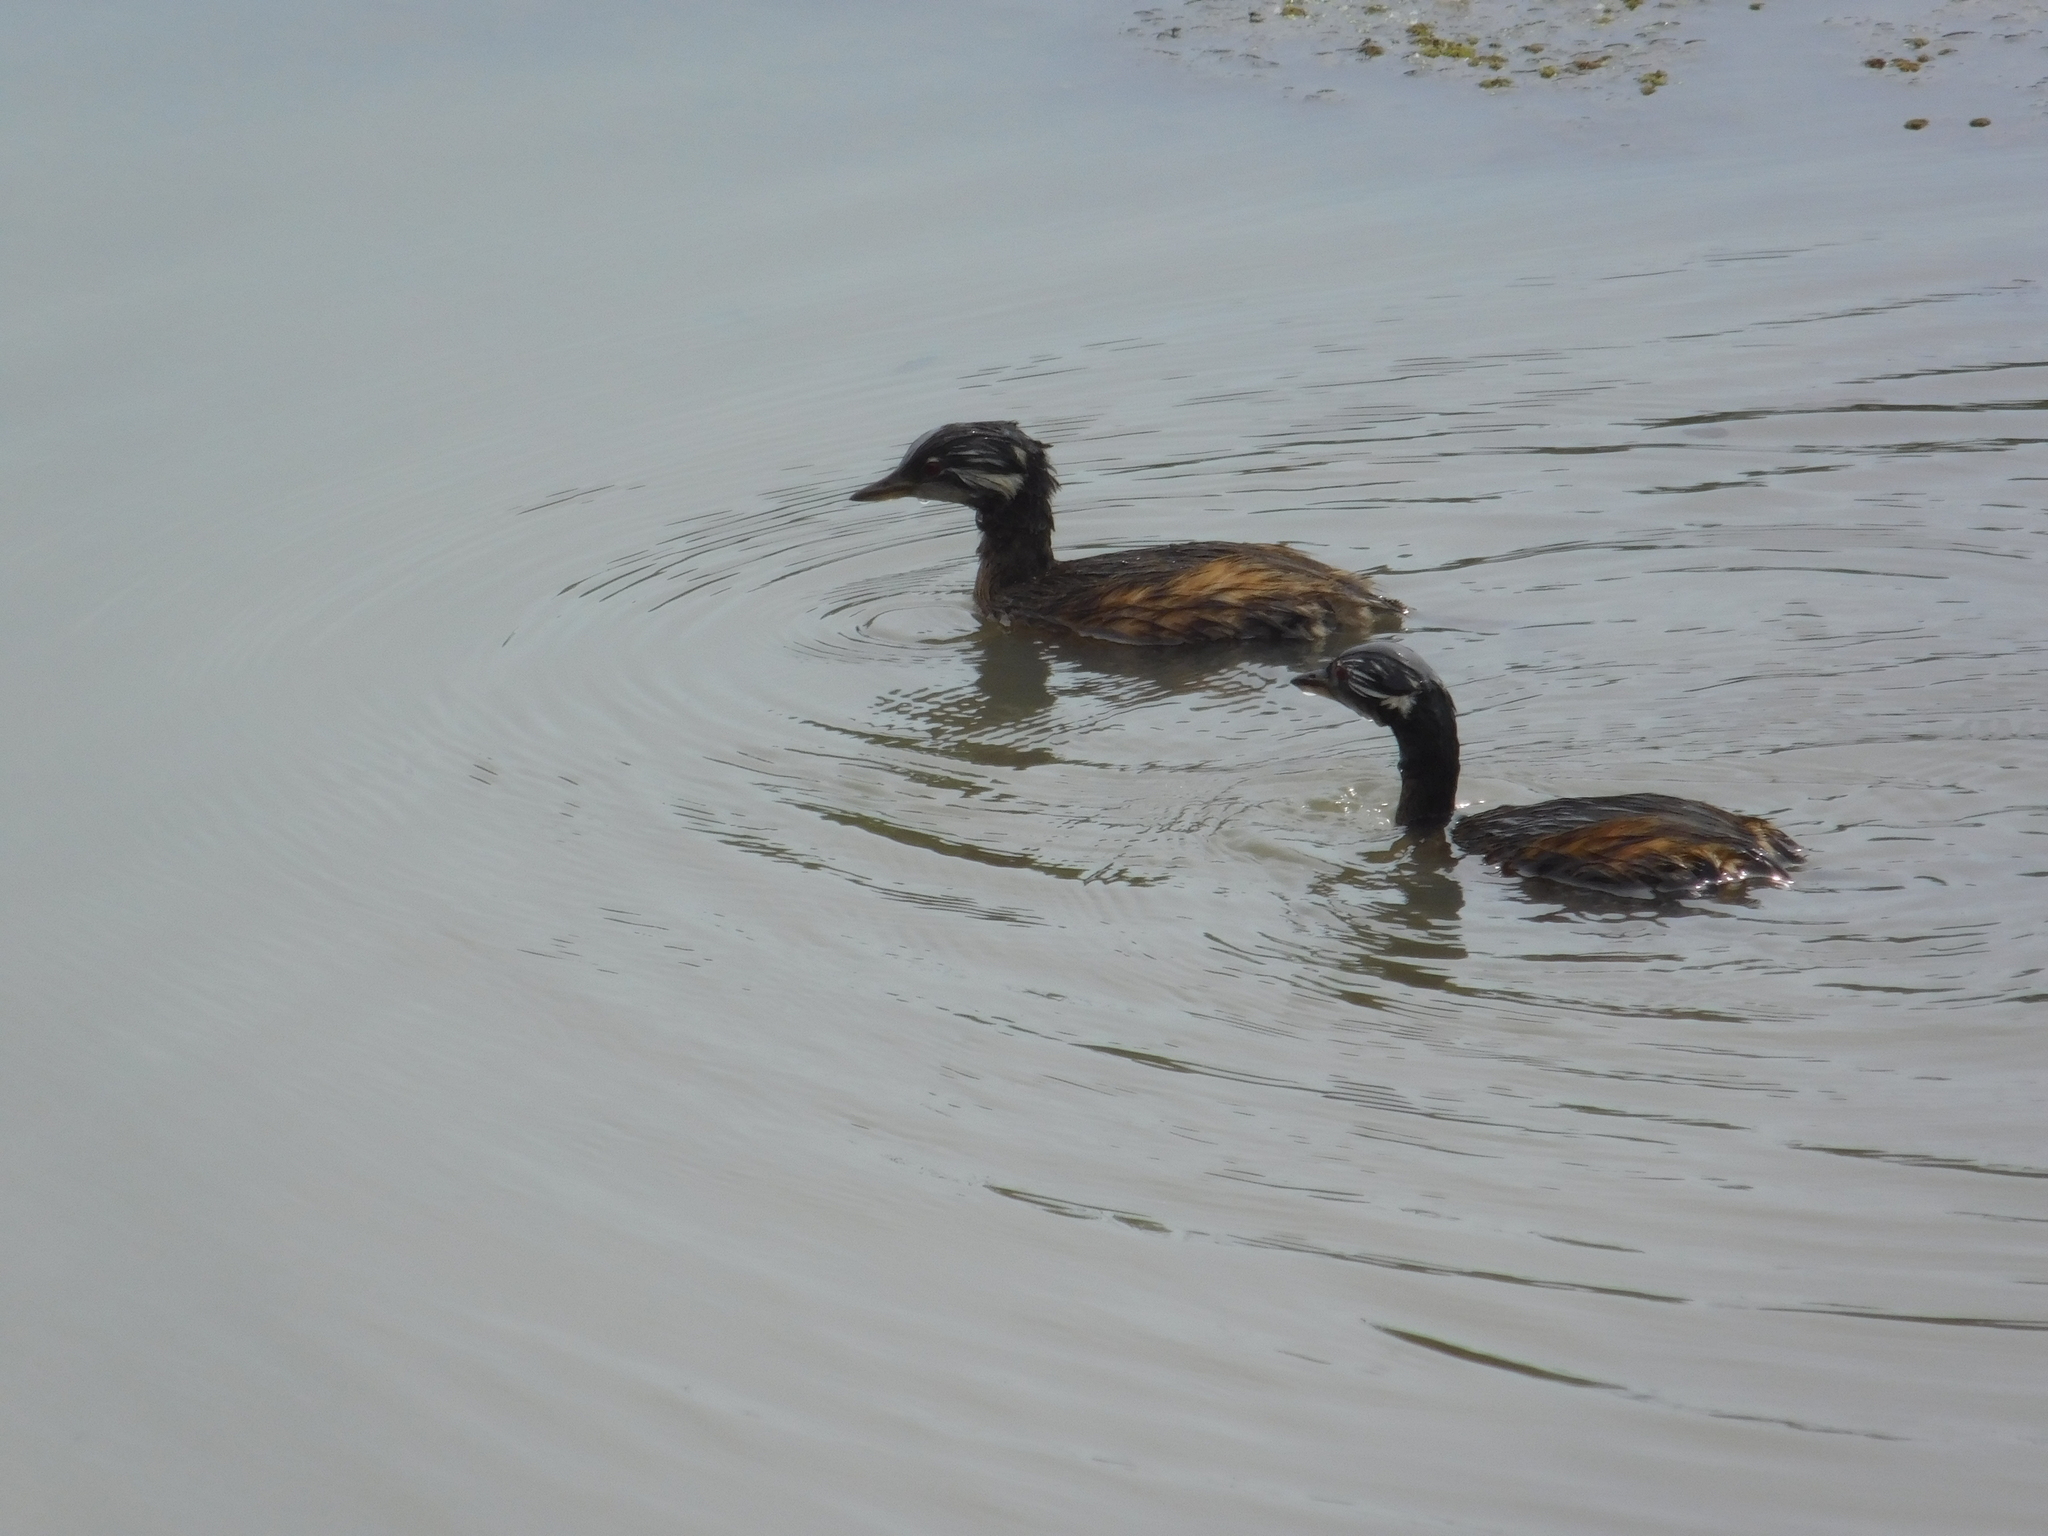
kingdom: Animalia
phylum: Chordata
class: Aves
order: Podicipediformes
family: Podicipedidae
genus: Rollandia
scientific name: Rollandia rolland
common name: White-tufted grebe
